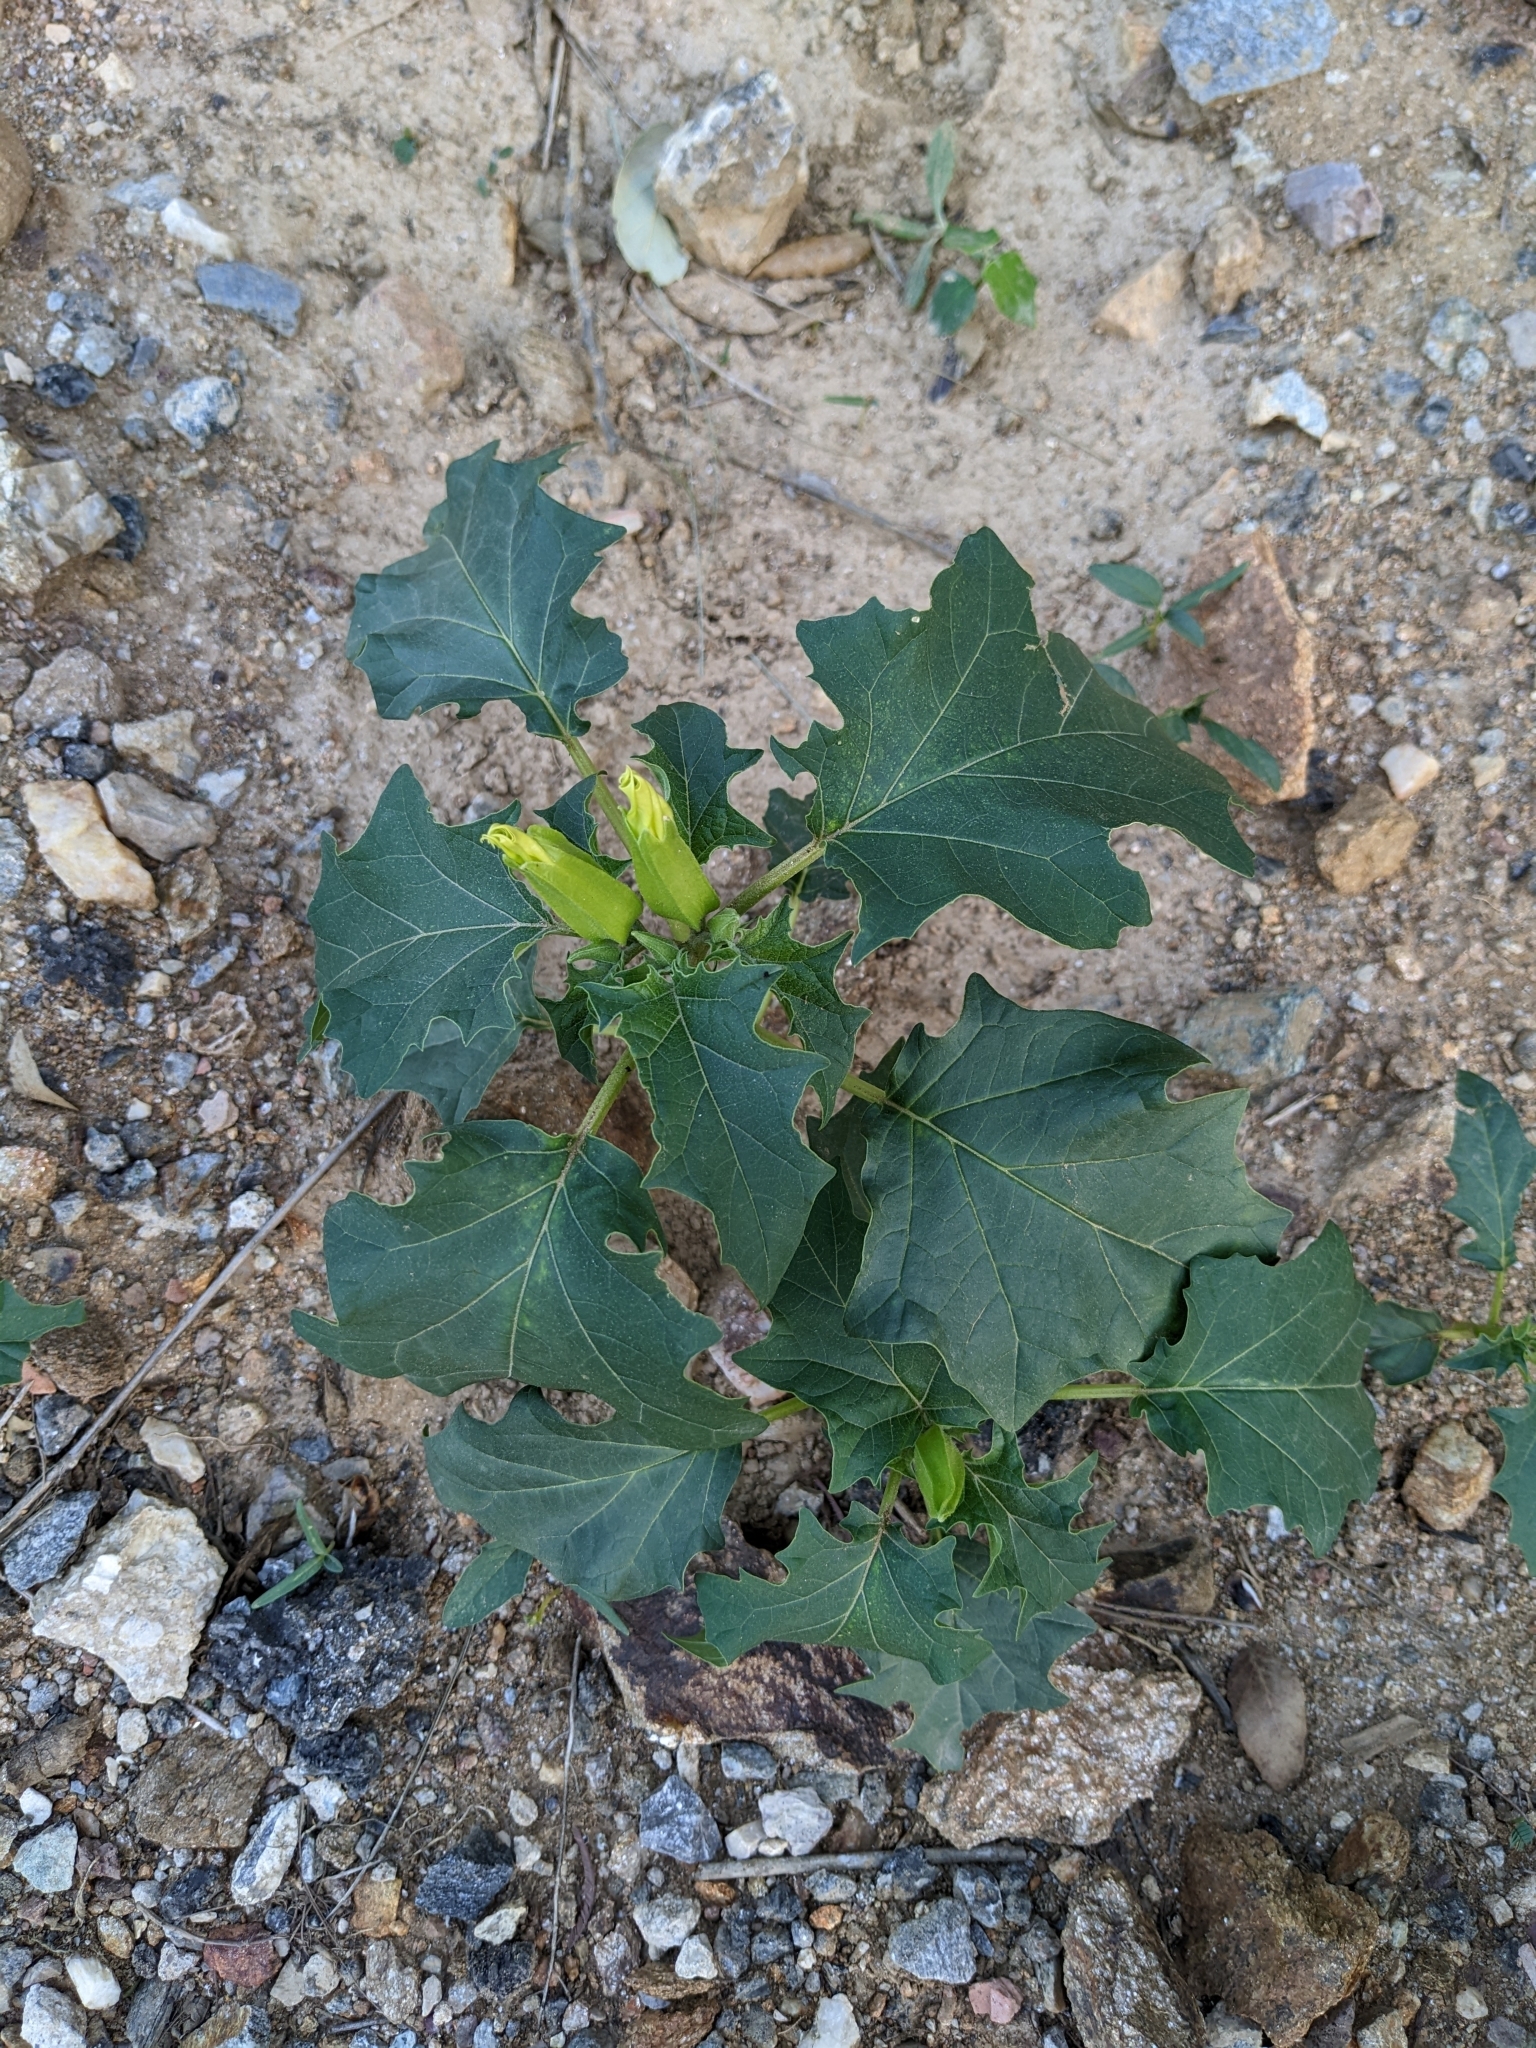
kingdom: Plantae
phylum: Tracheophyta
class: Magnoliopsida
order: Solanales
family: Solanaceae
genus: Datura
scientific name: Datura stramonium
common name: Thorn-apple
